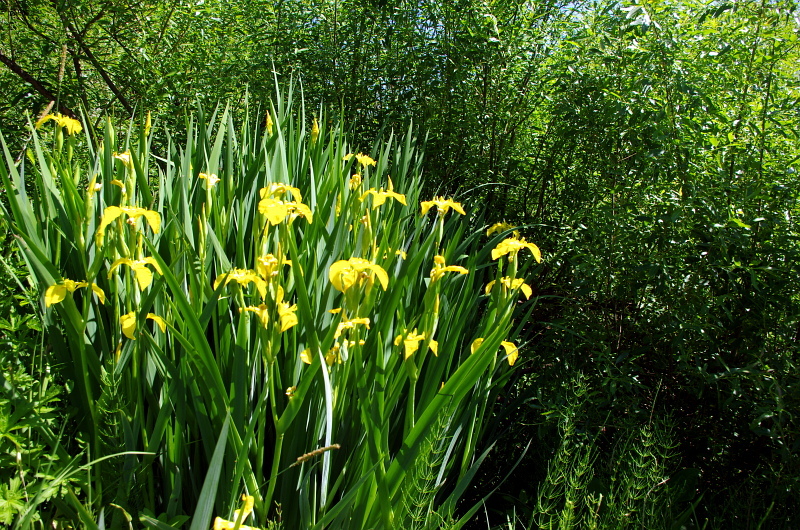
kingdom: Plantae
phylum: Tracheophyta
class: Liliopsida
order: Asparagales
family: Iridaceae
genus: Iris
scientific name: Iris pseudacorus
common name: Yellow flag
